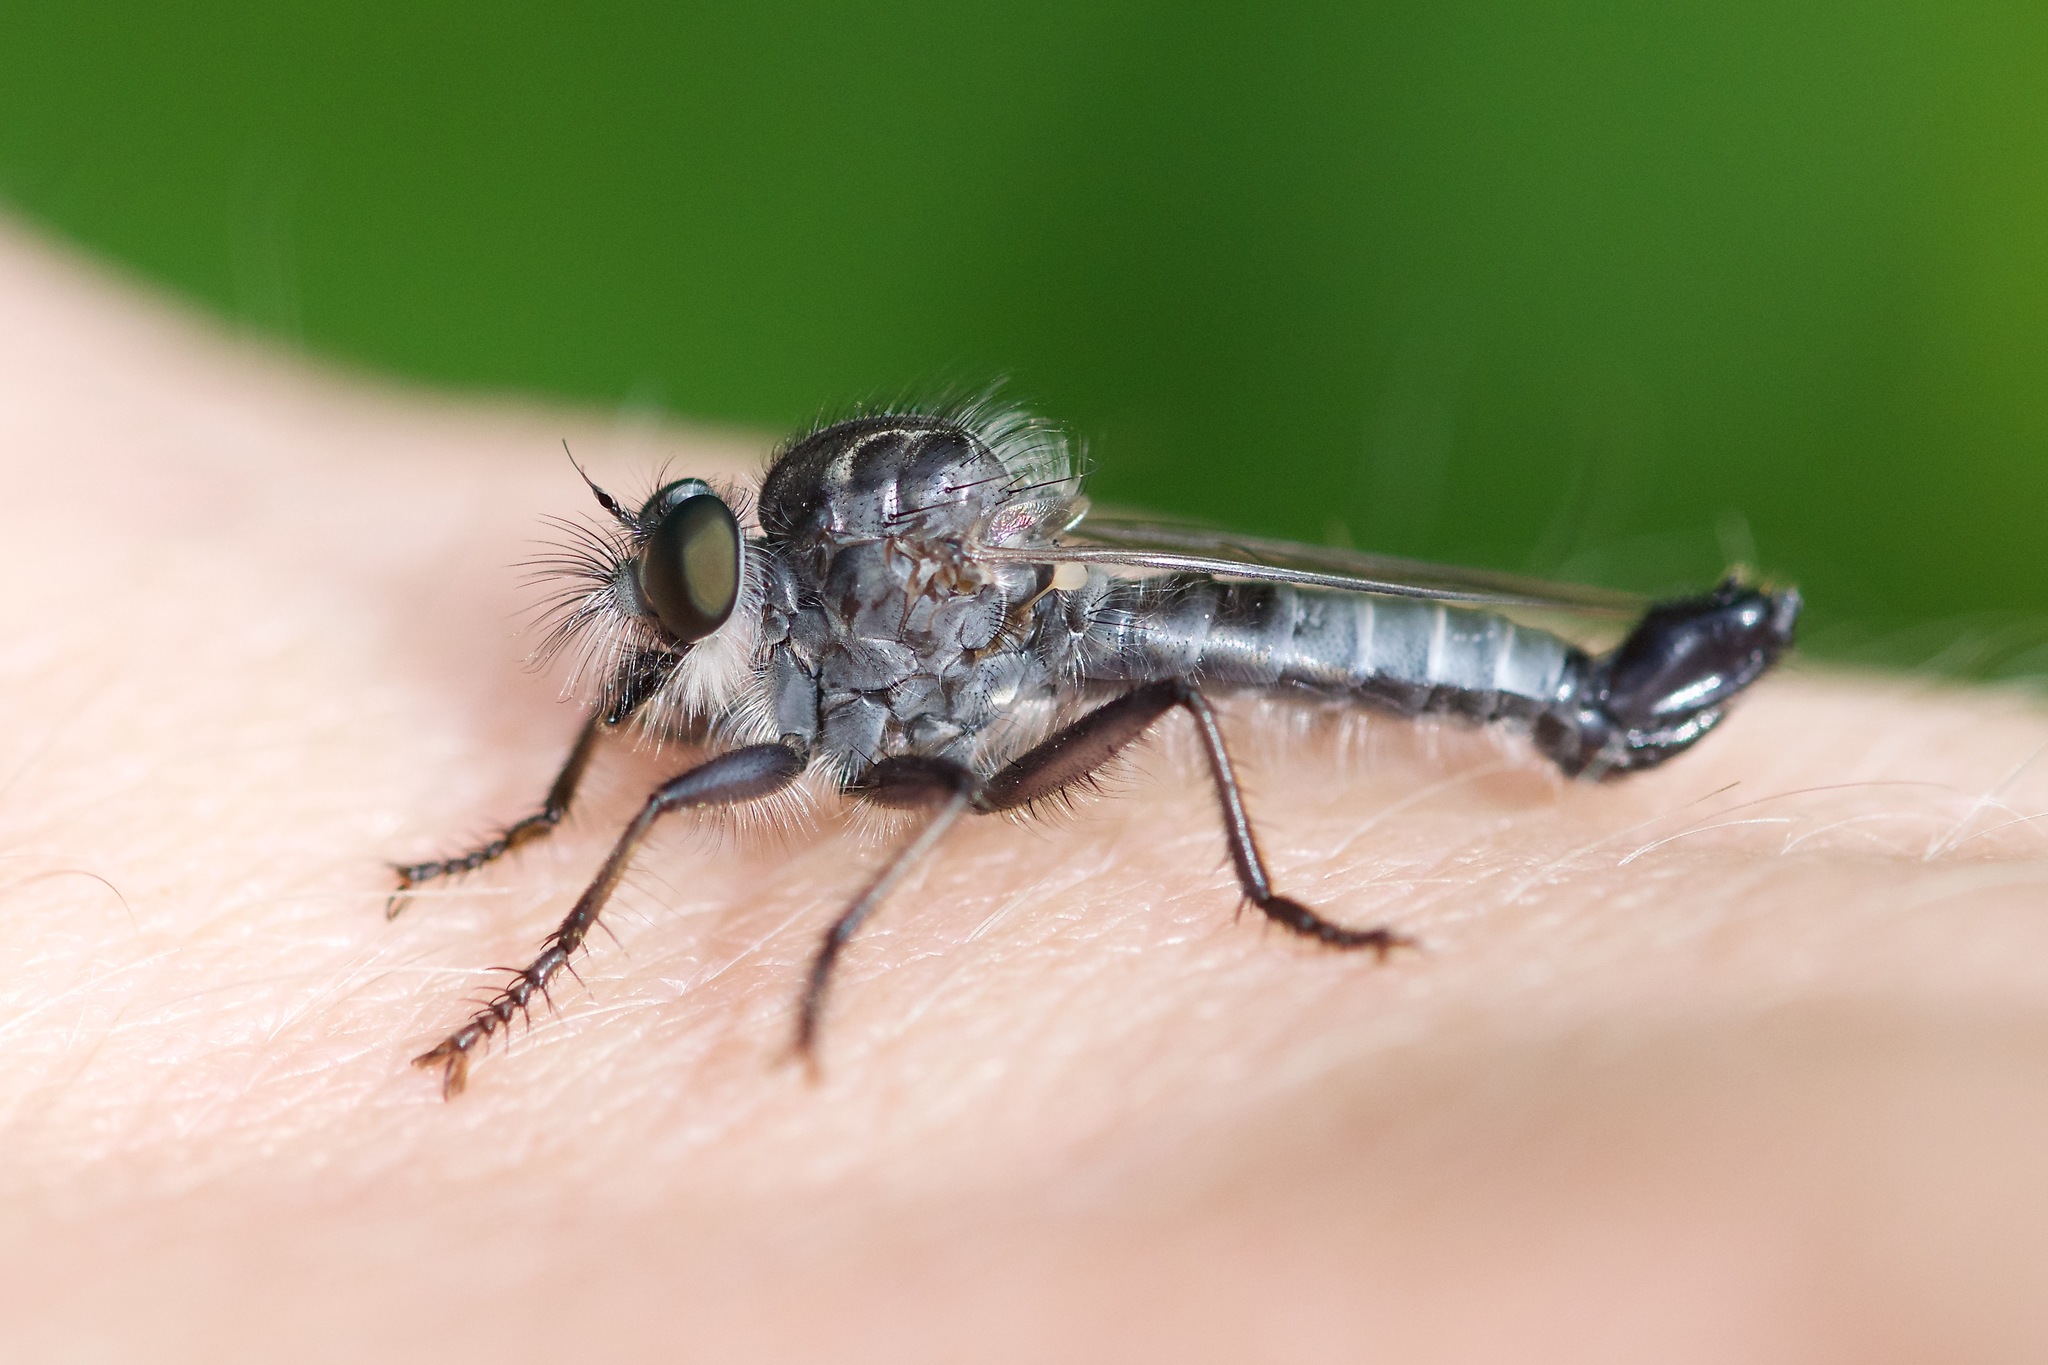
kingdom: Animalia
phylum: Arthropoda
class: Insecta
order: Diptera
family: Asilidae
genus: Efferia
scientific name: Efferia aestuans
